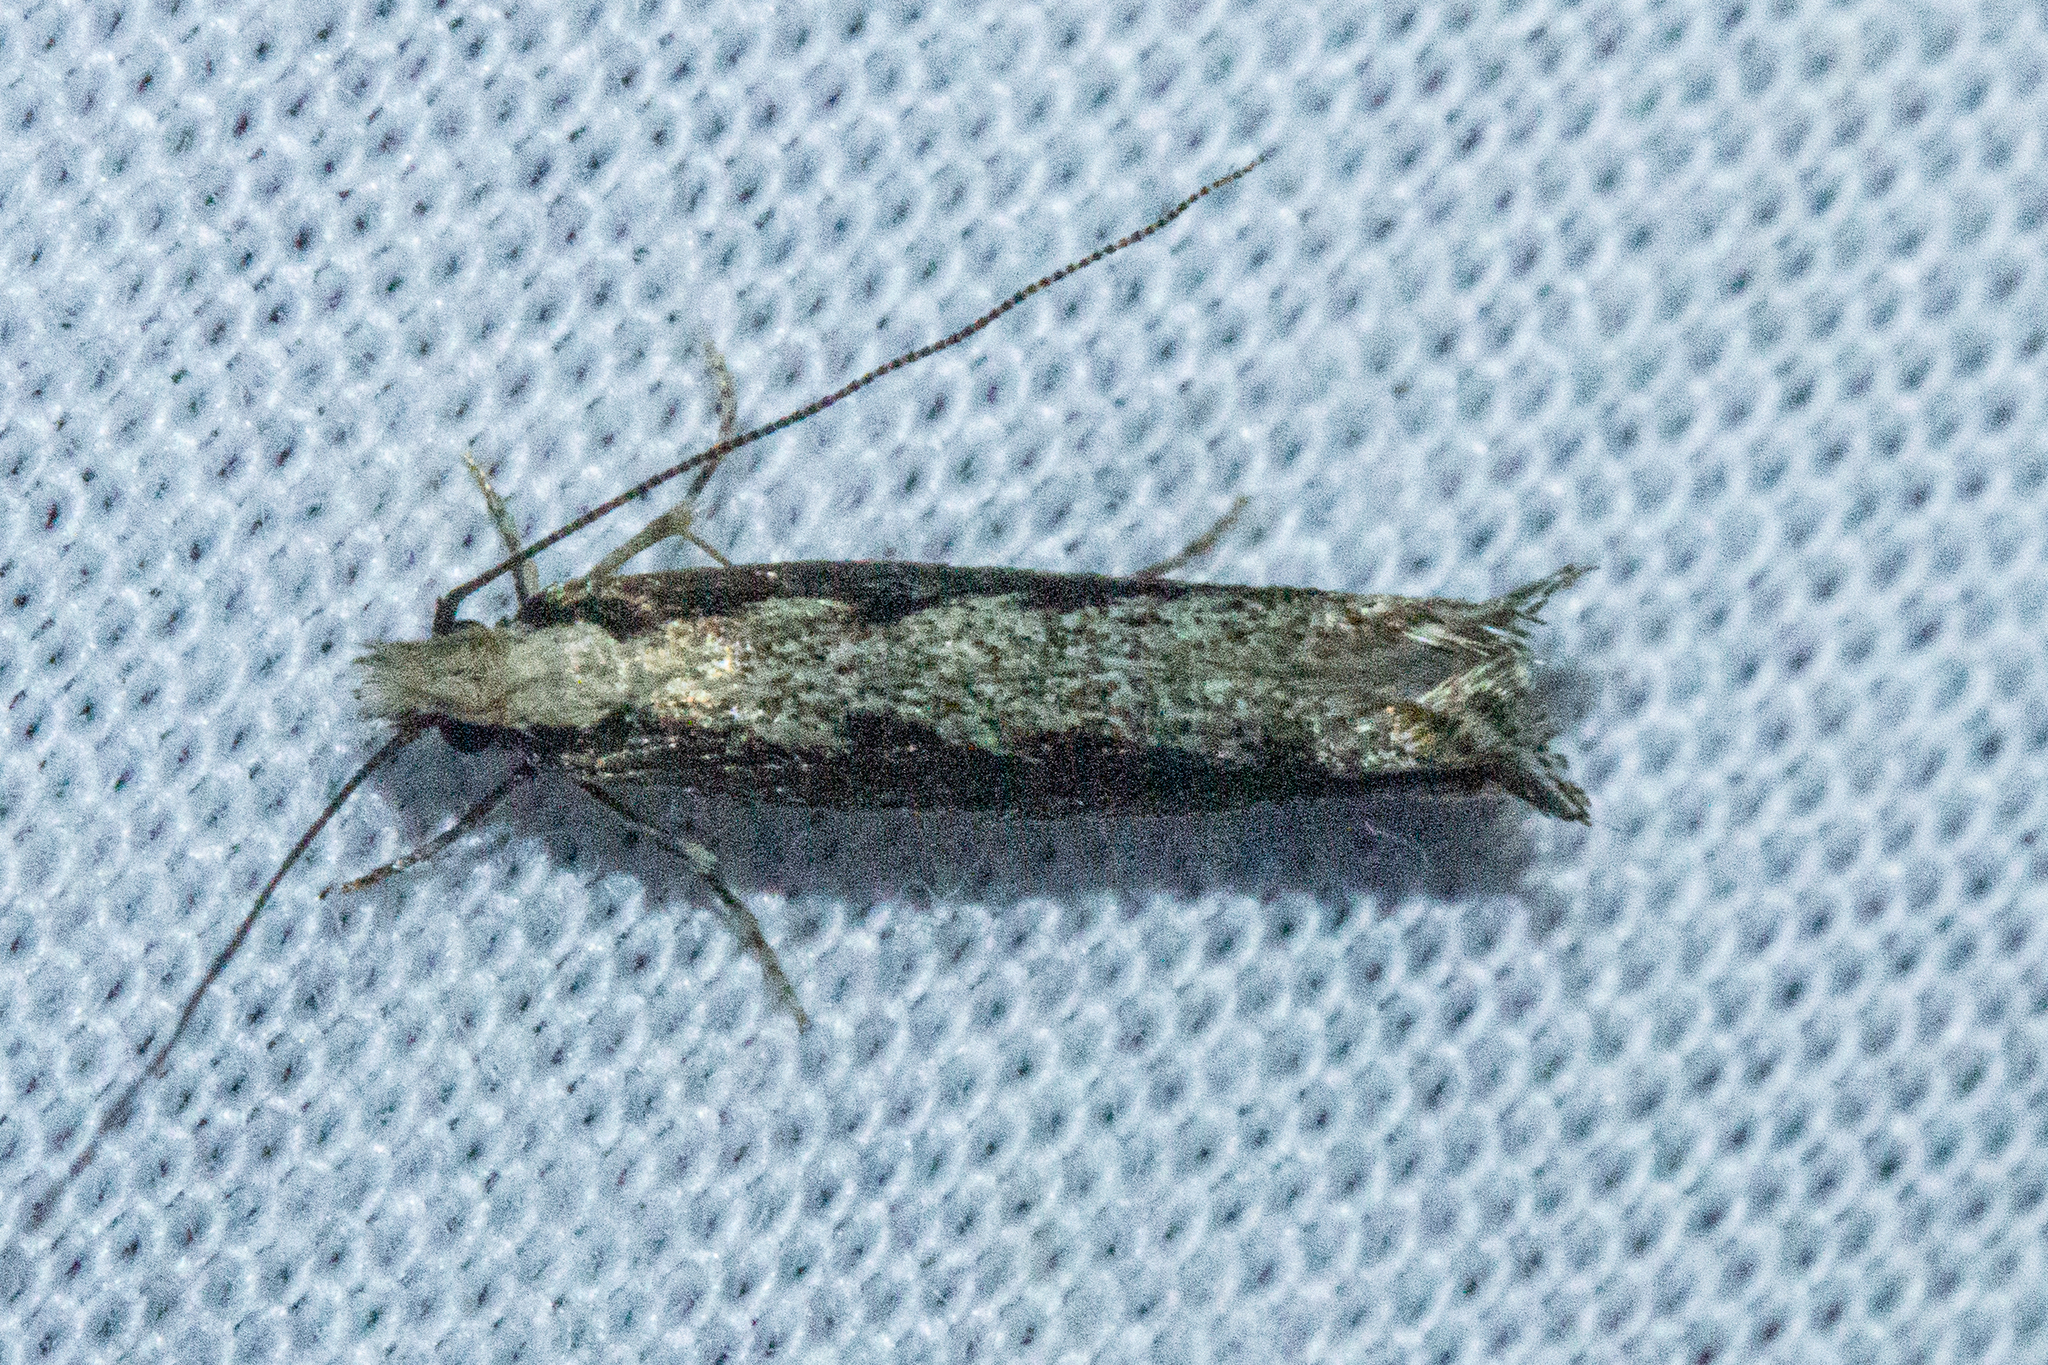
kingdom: Animalia
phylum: Arthropoda
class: Insecta
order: Lepidoptera
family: Tineidae
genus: Erechthias
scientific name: Erechthias fulguritella
